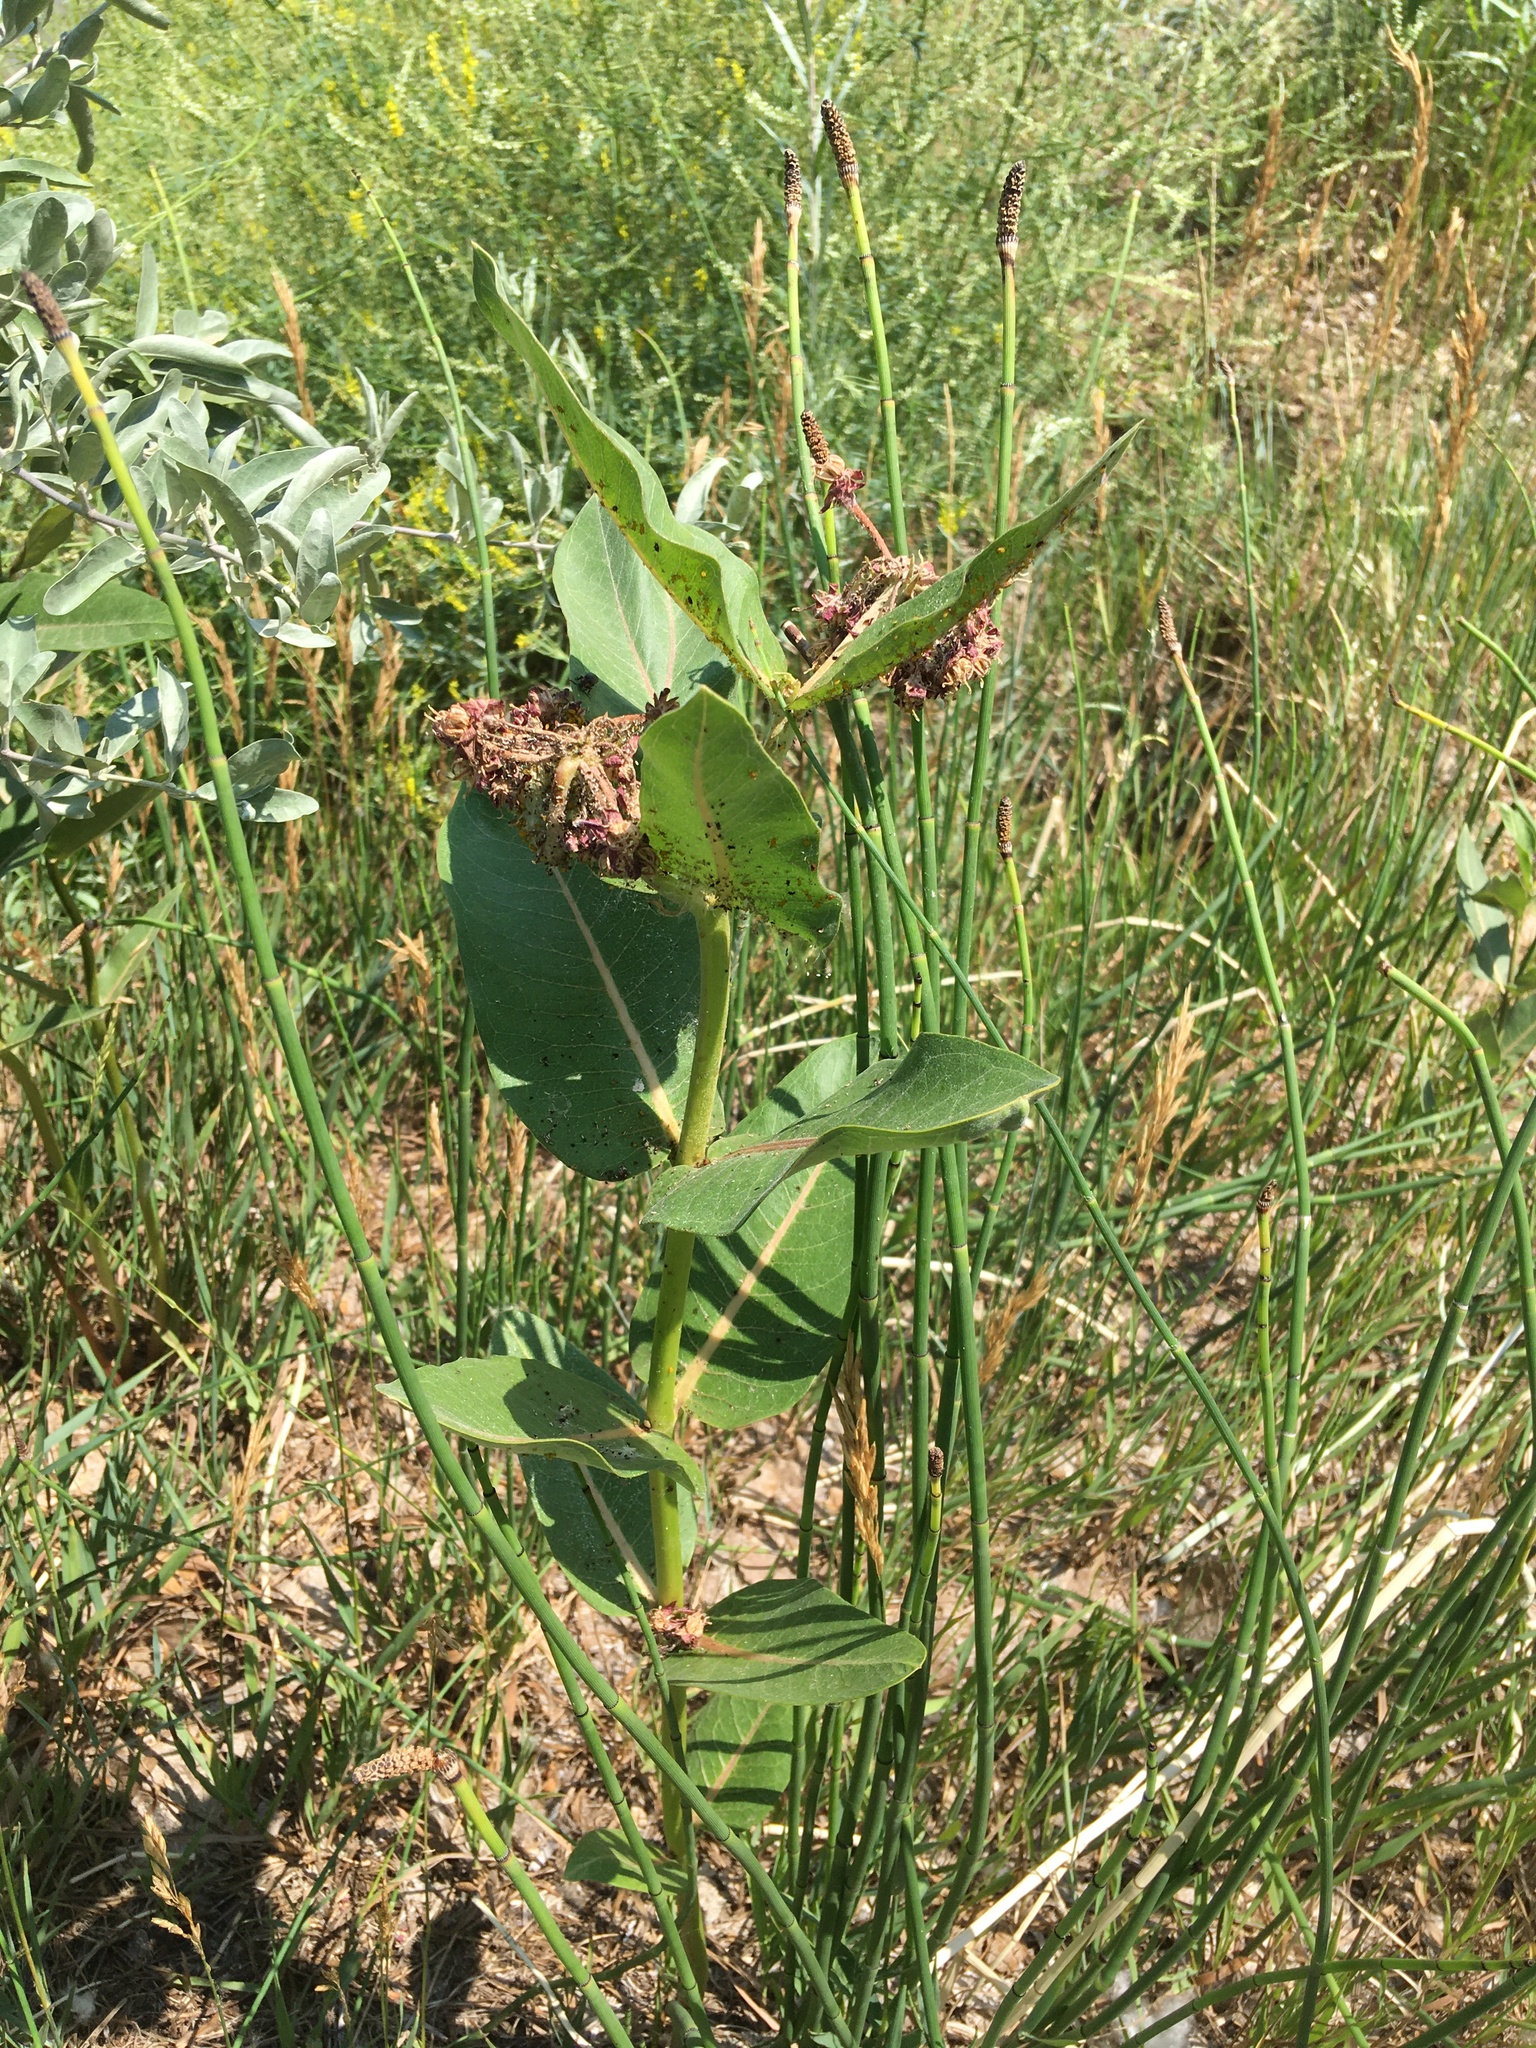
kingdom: Plantae
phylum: Tracheophyta
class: Magnoliopsida
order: Gentianales
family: Apocynaceae
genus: Asclepias
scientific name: Asclepias speciosa
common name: Showy milkweed
